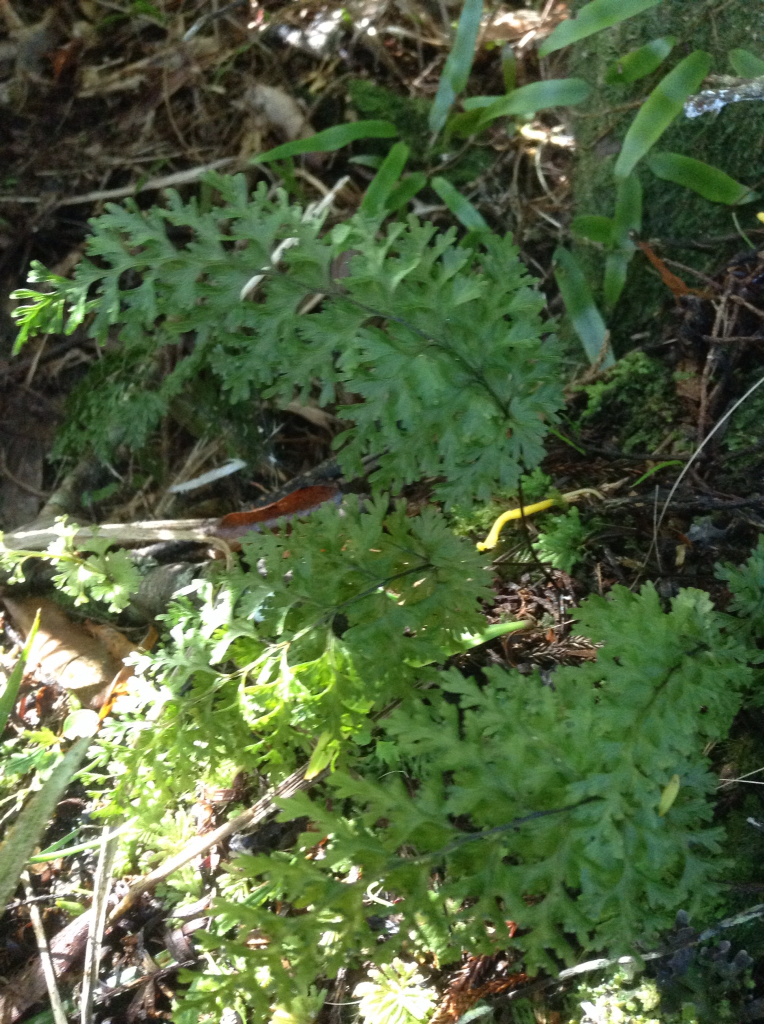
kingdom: Plantae
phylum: Tracheophyta
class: Polypodiopsida
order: Hymenophyllales
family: Hymenophyllaceae
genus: Hymenophyllum
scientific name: Hymenophyllum demissum
